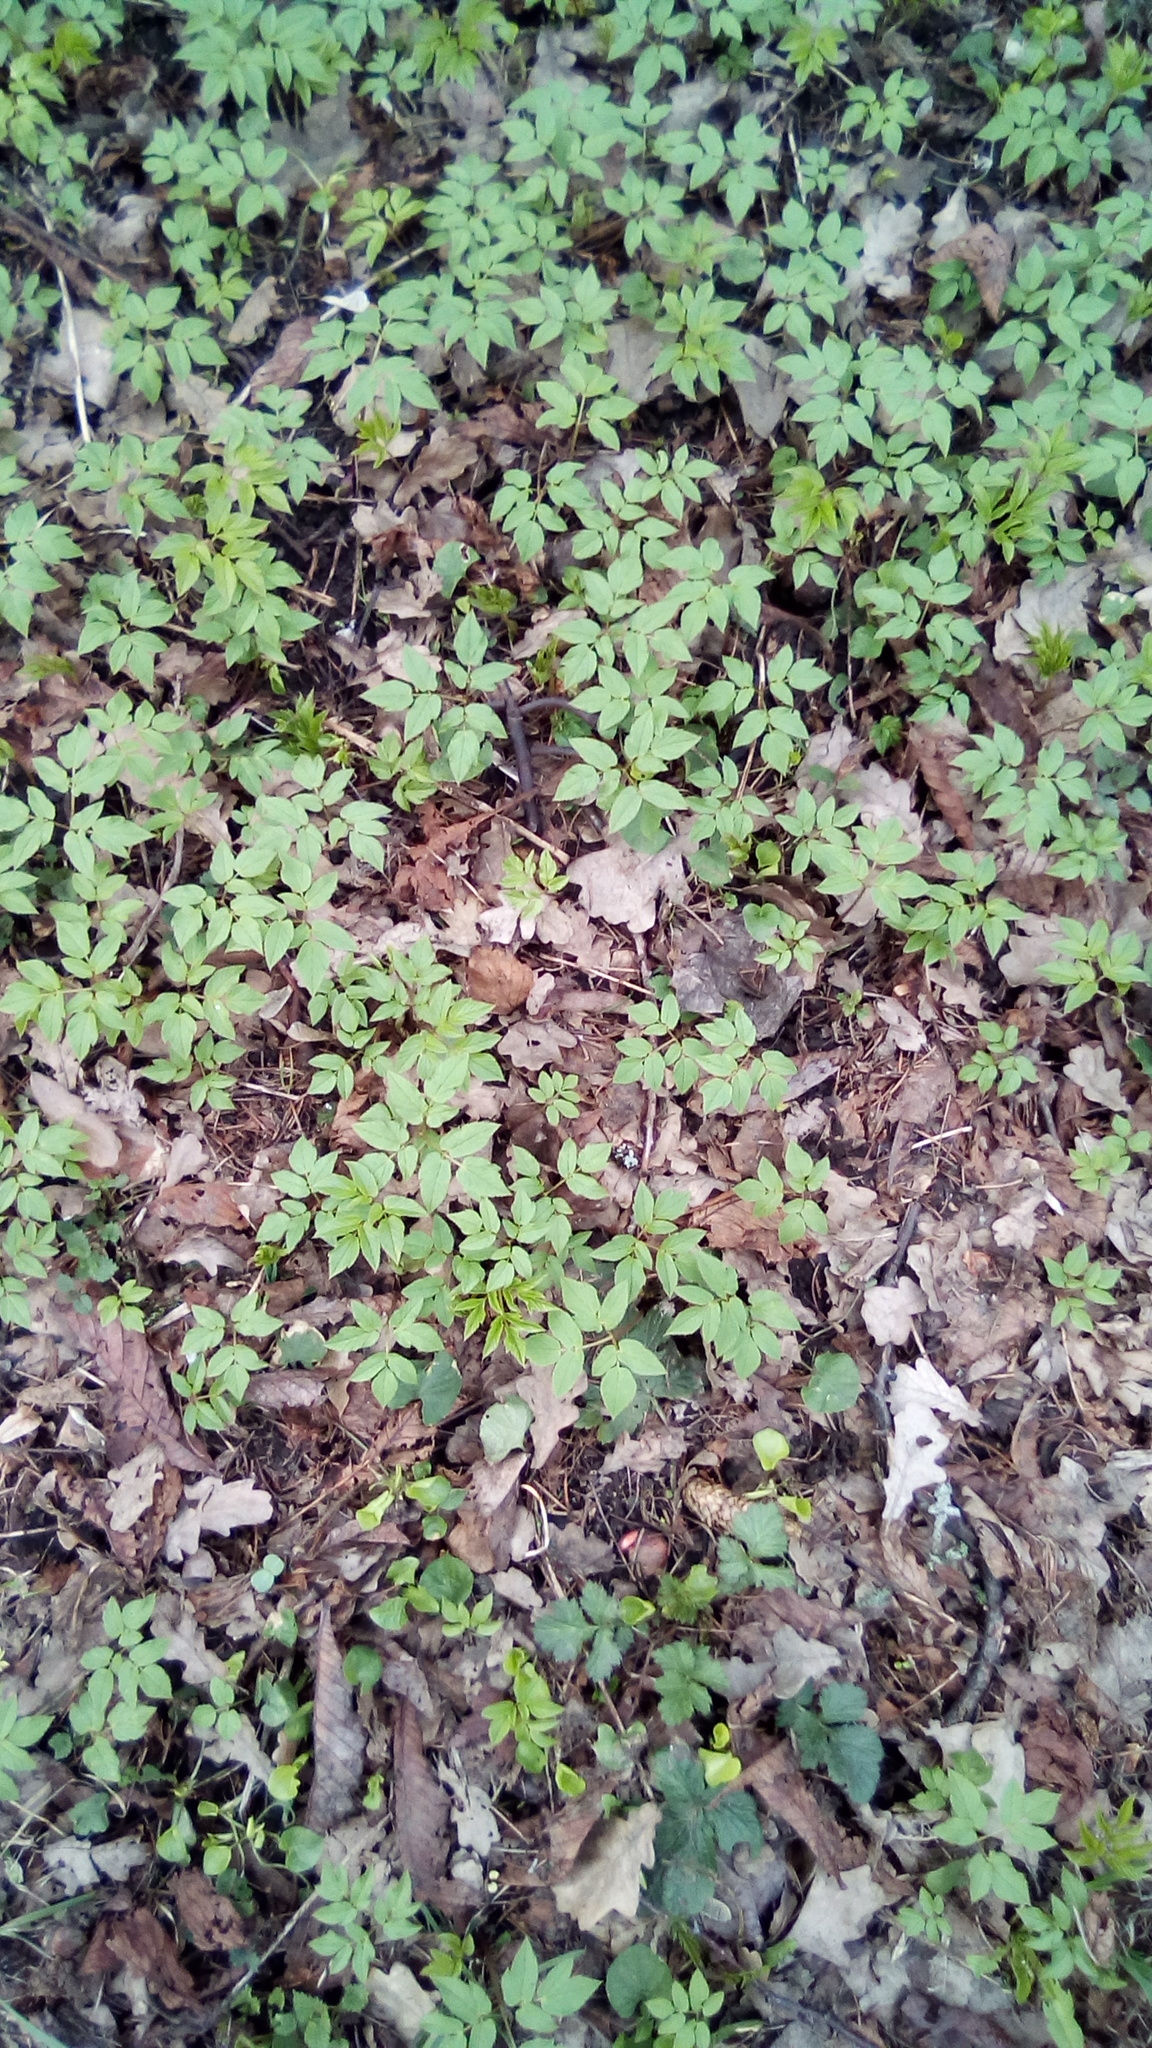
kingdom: Plantae
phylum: Tracheophyta
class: Magnoliopsida
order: Apiales
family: Apiaceae
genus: Aegopodium
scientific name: Aegopodium podagraria
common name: Ground-elder
